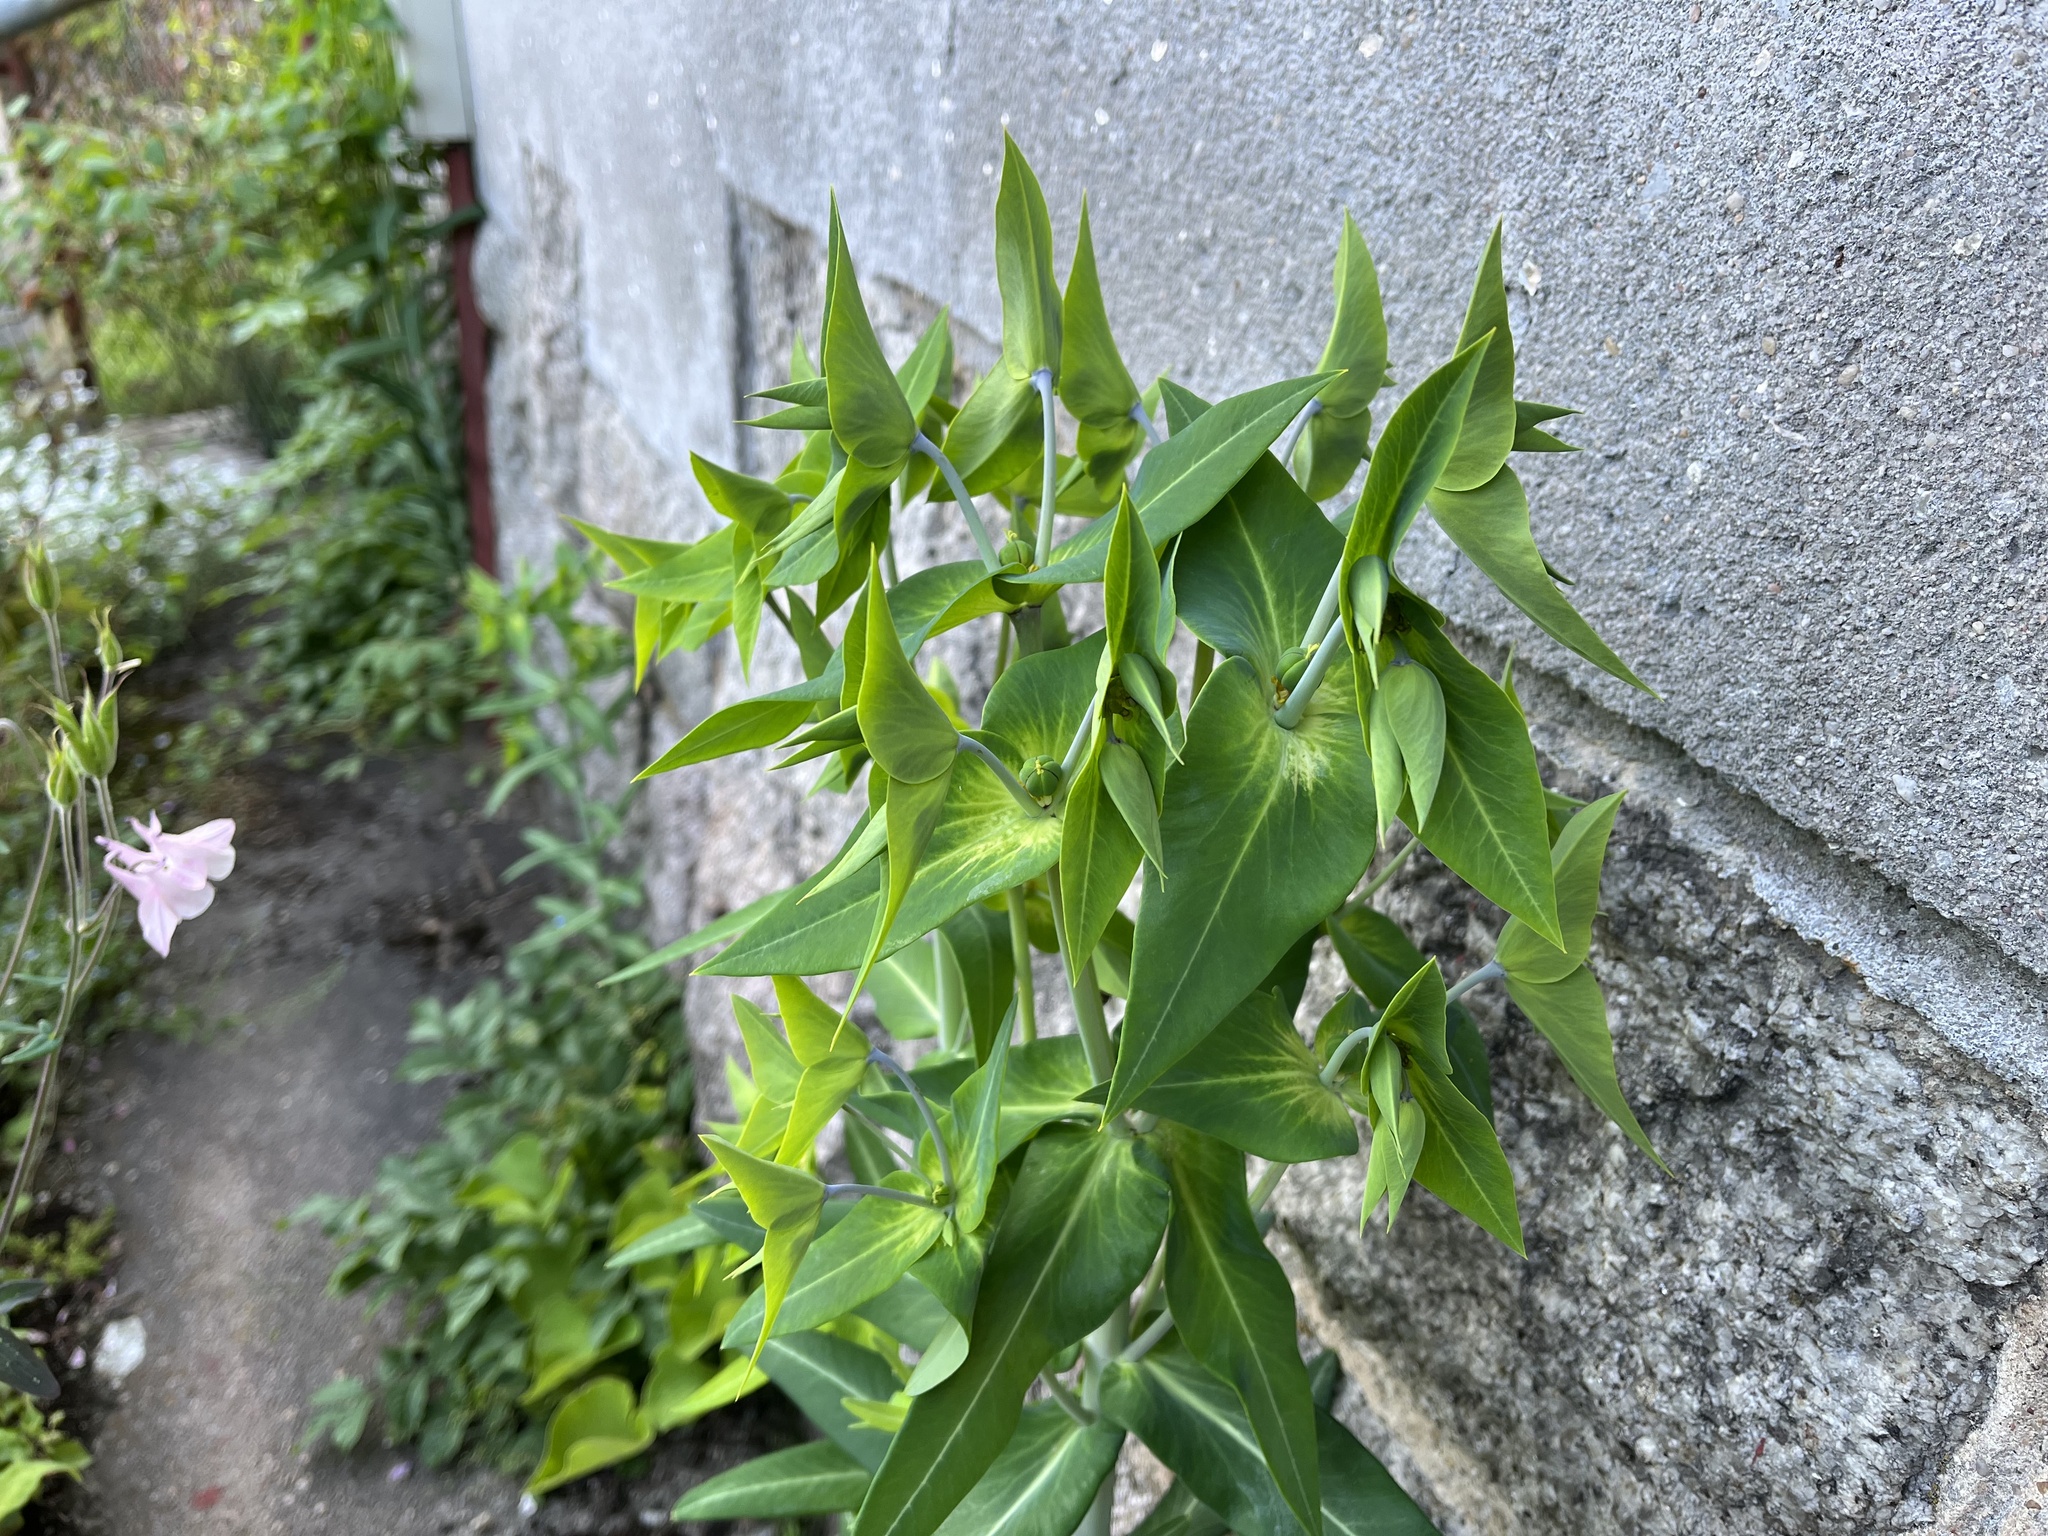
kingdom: Plantae
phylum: Tracheophyta
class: Magnoliopsida
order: Malpighiales
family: Euphorbiaceae
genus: Euphorbia
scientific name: Euphorbia lathyris
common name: Caper spurge
